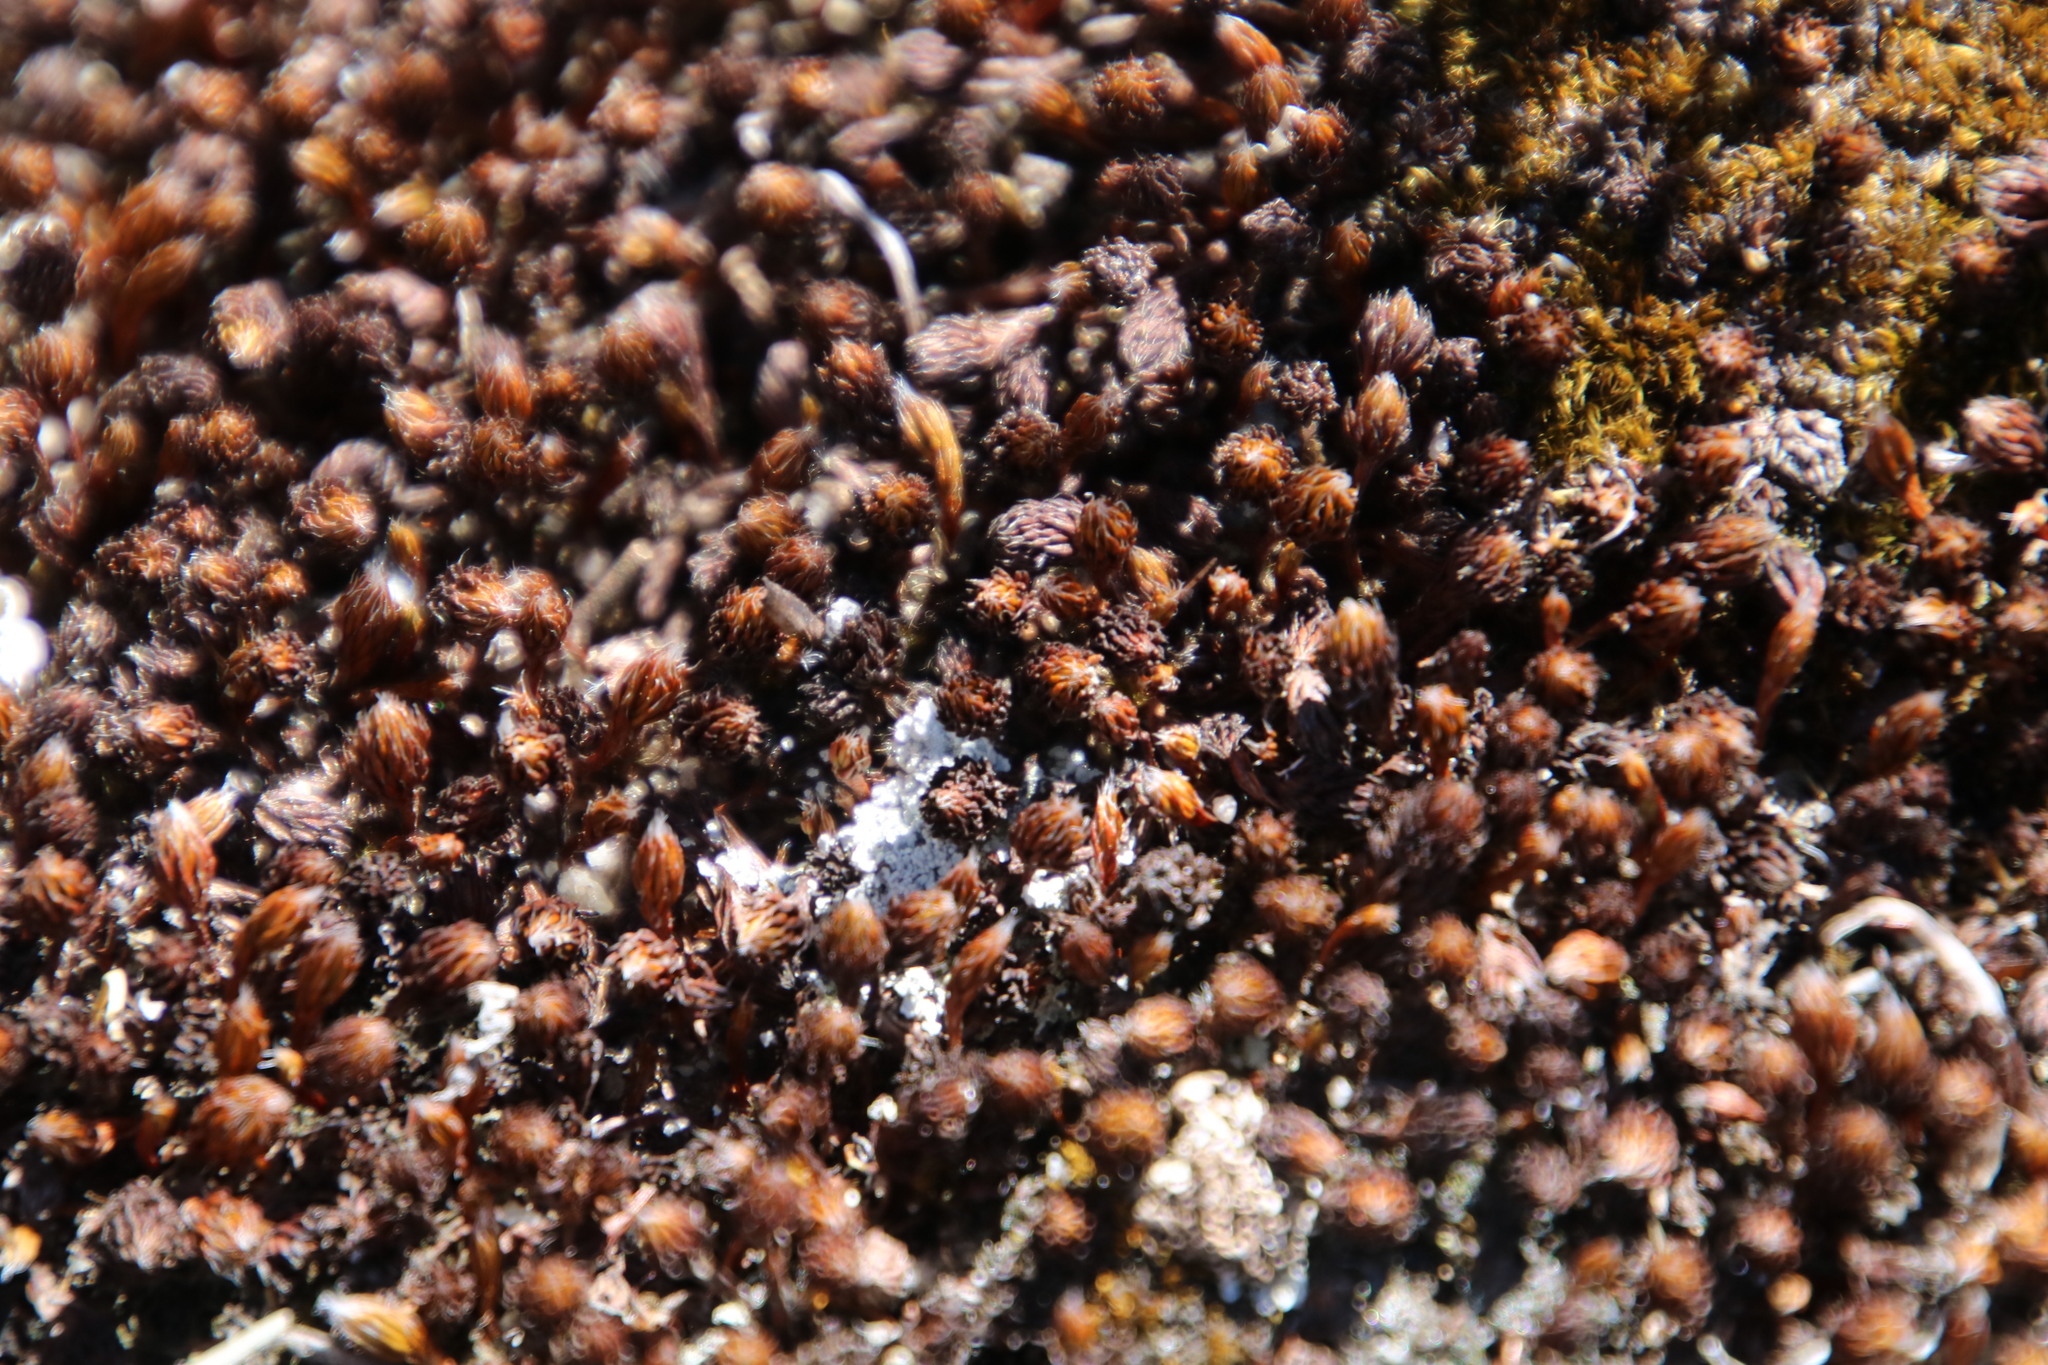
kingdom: Plantae
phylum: Bryophyta
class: Polytrichopsida
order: Polytrichales
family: Polytrichaceae
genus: Polytrichum
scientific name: Polytrichum piliferum
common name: Bristly haircap
